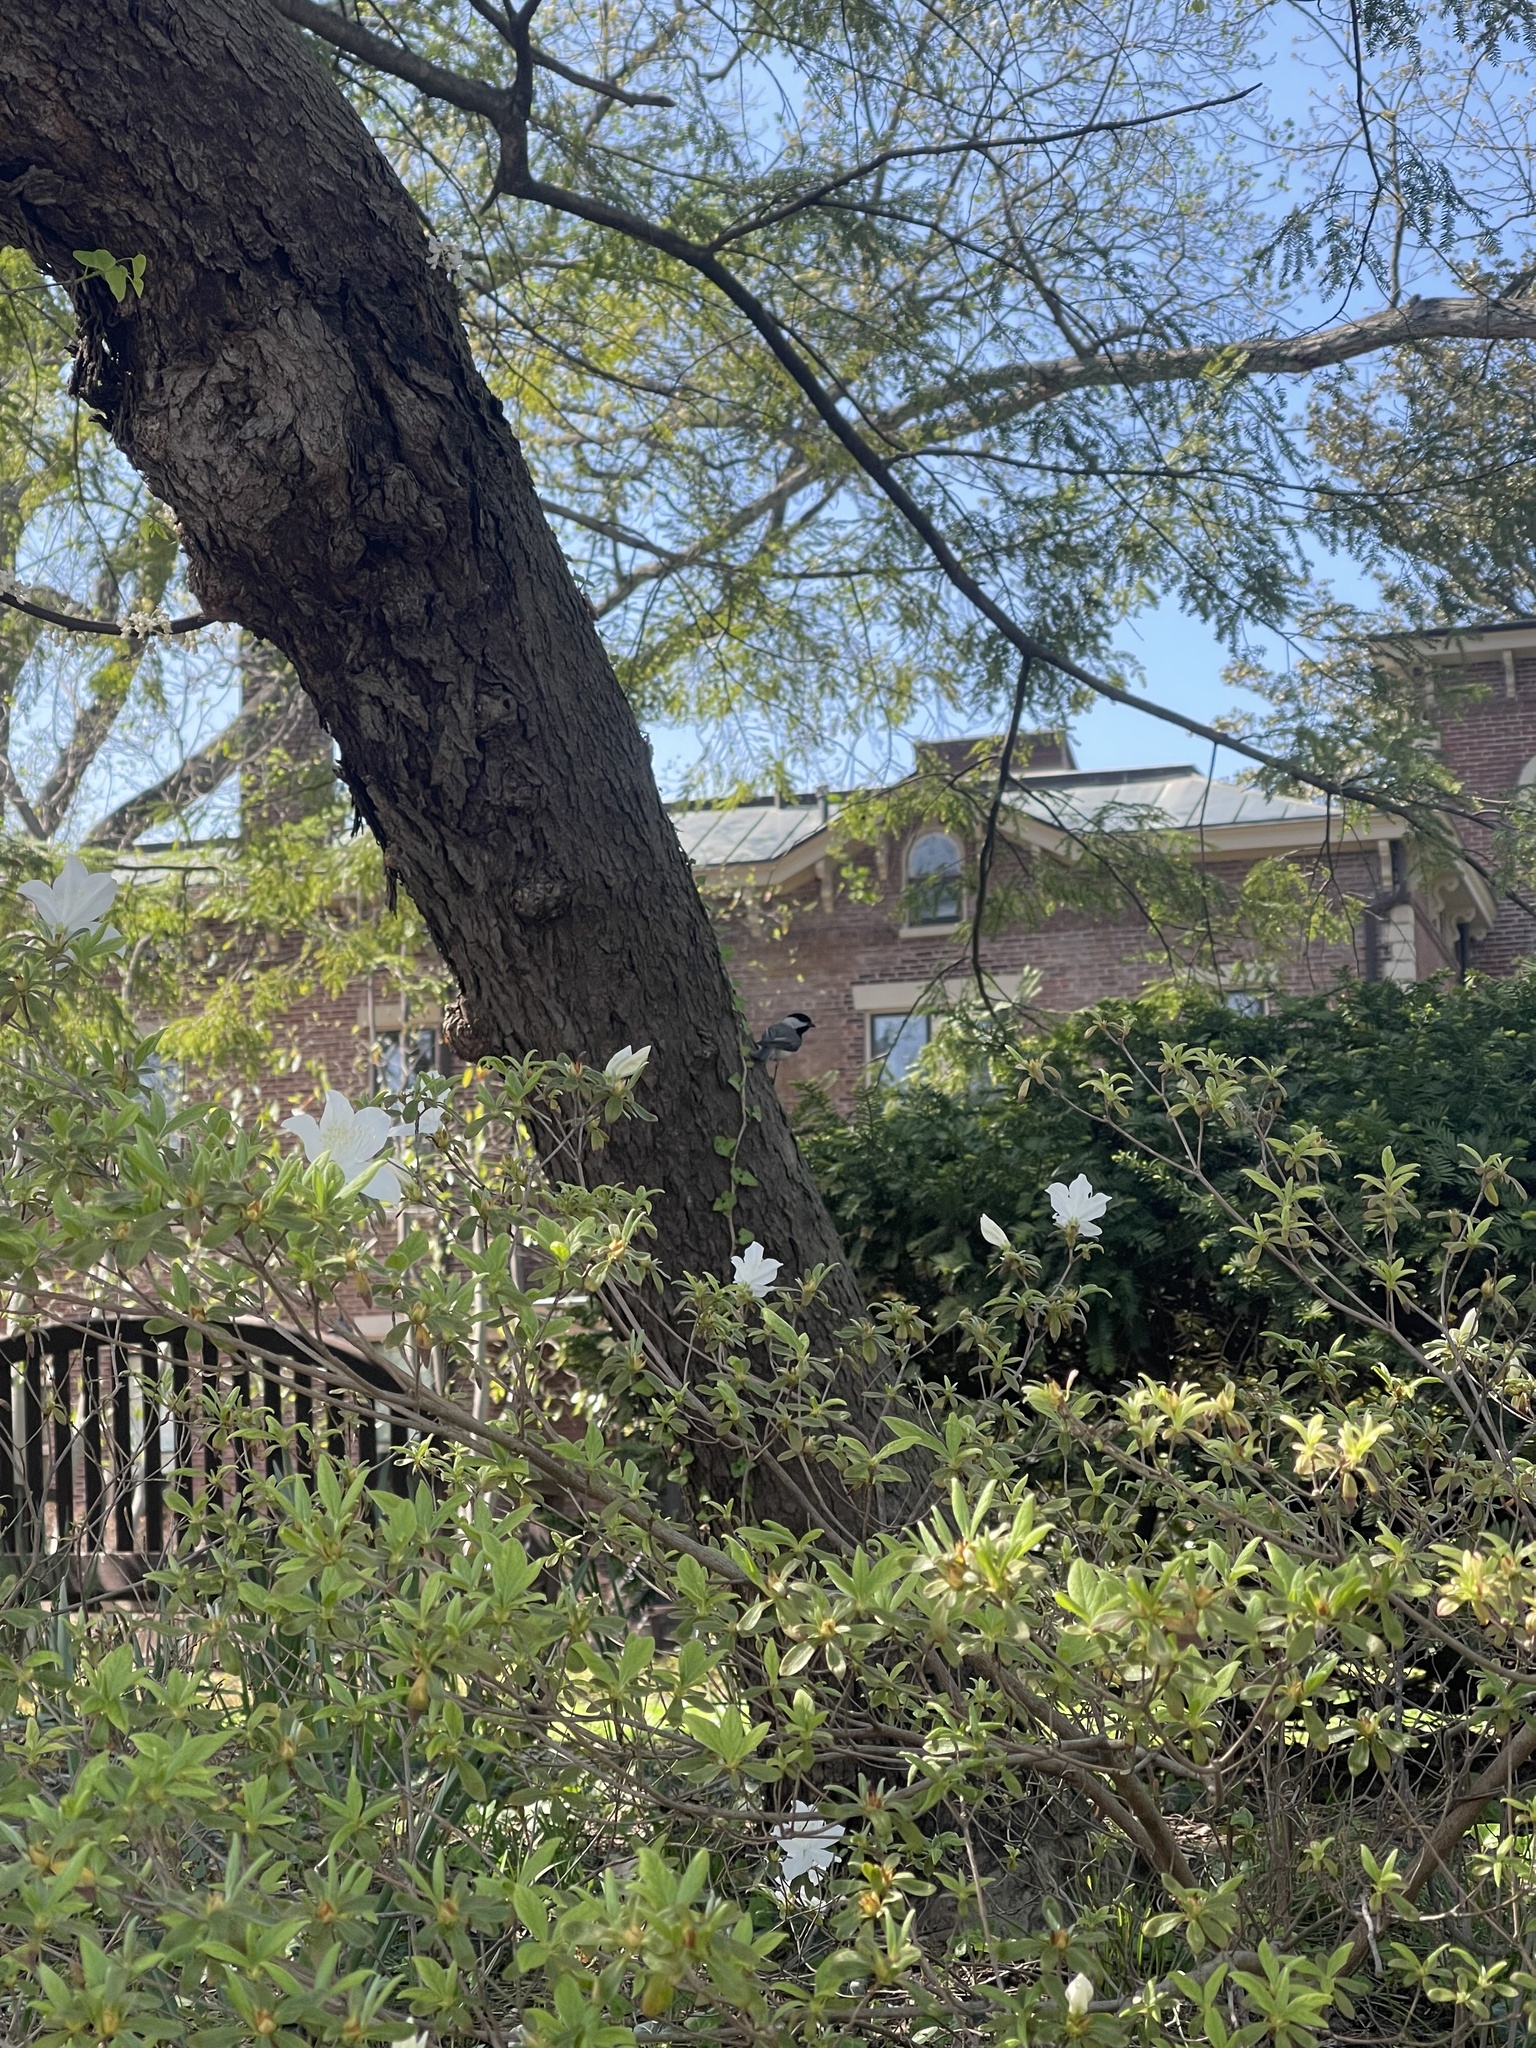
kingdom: Animalia
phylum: Chordata
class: Aves
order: Passeriformes
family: Paridae
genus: Poecile
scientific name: Poecile carolinensis
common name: Carolina chickadee
